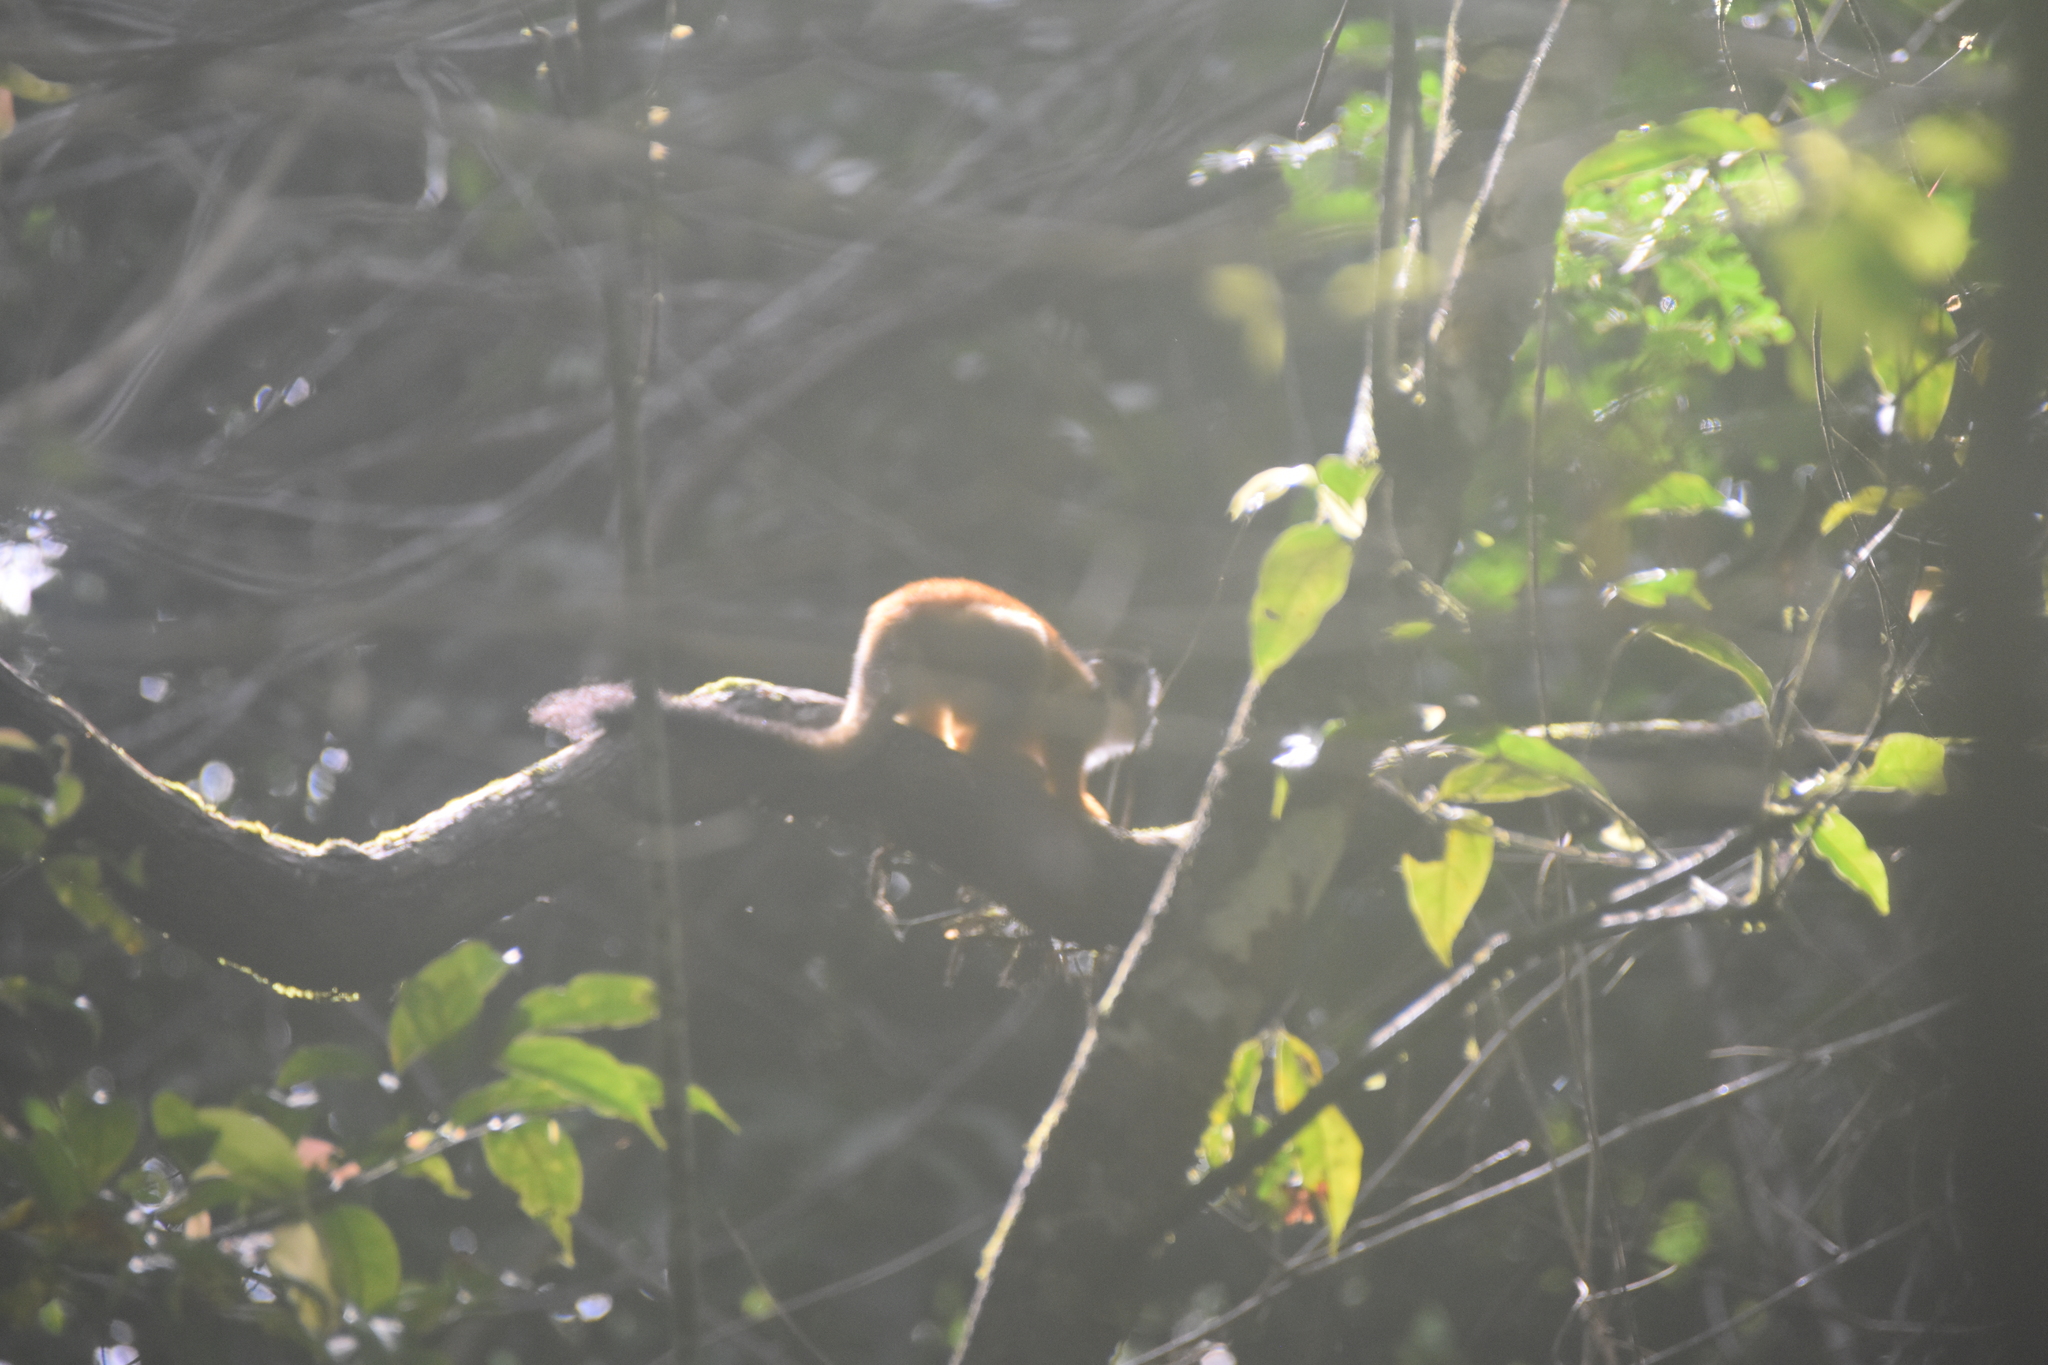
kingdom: Animalia
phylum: Chordata
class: Mammalia
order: Primates
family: Cebidae
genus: Saimiri
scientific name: Saimiri oerstedii
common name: Central american squirrel monkey
